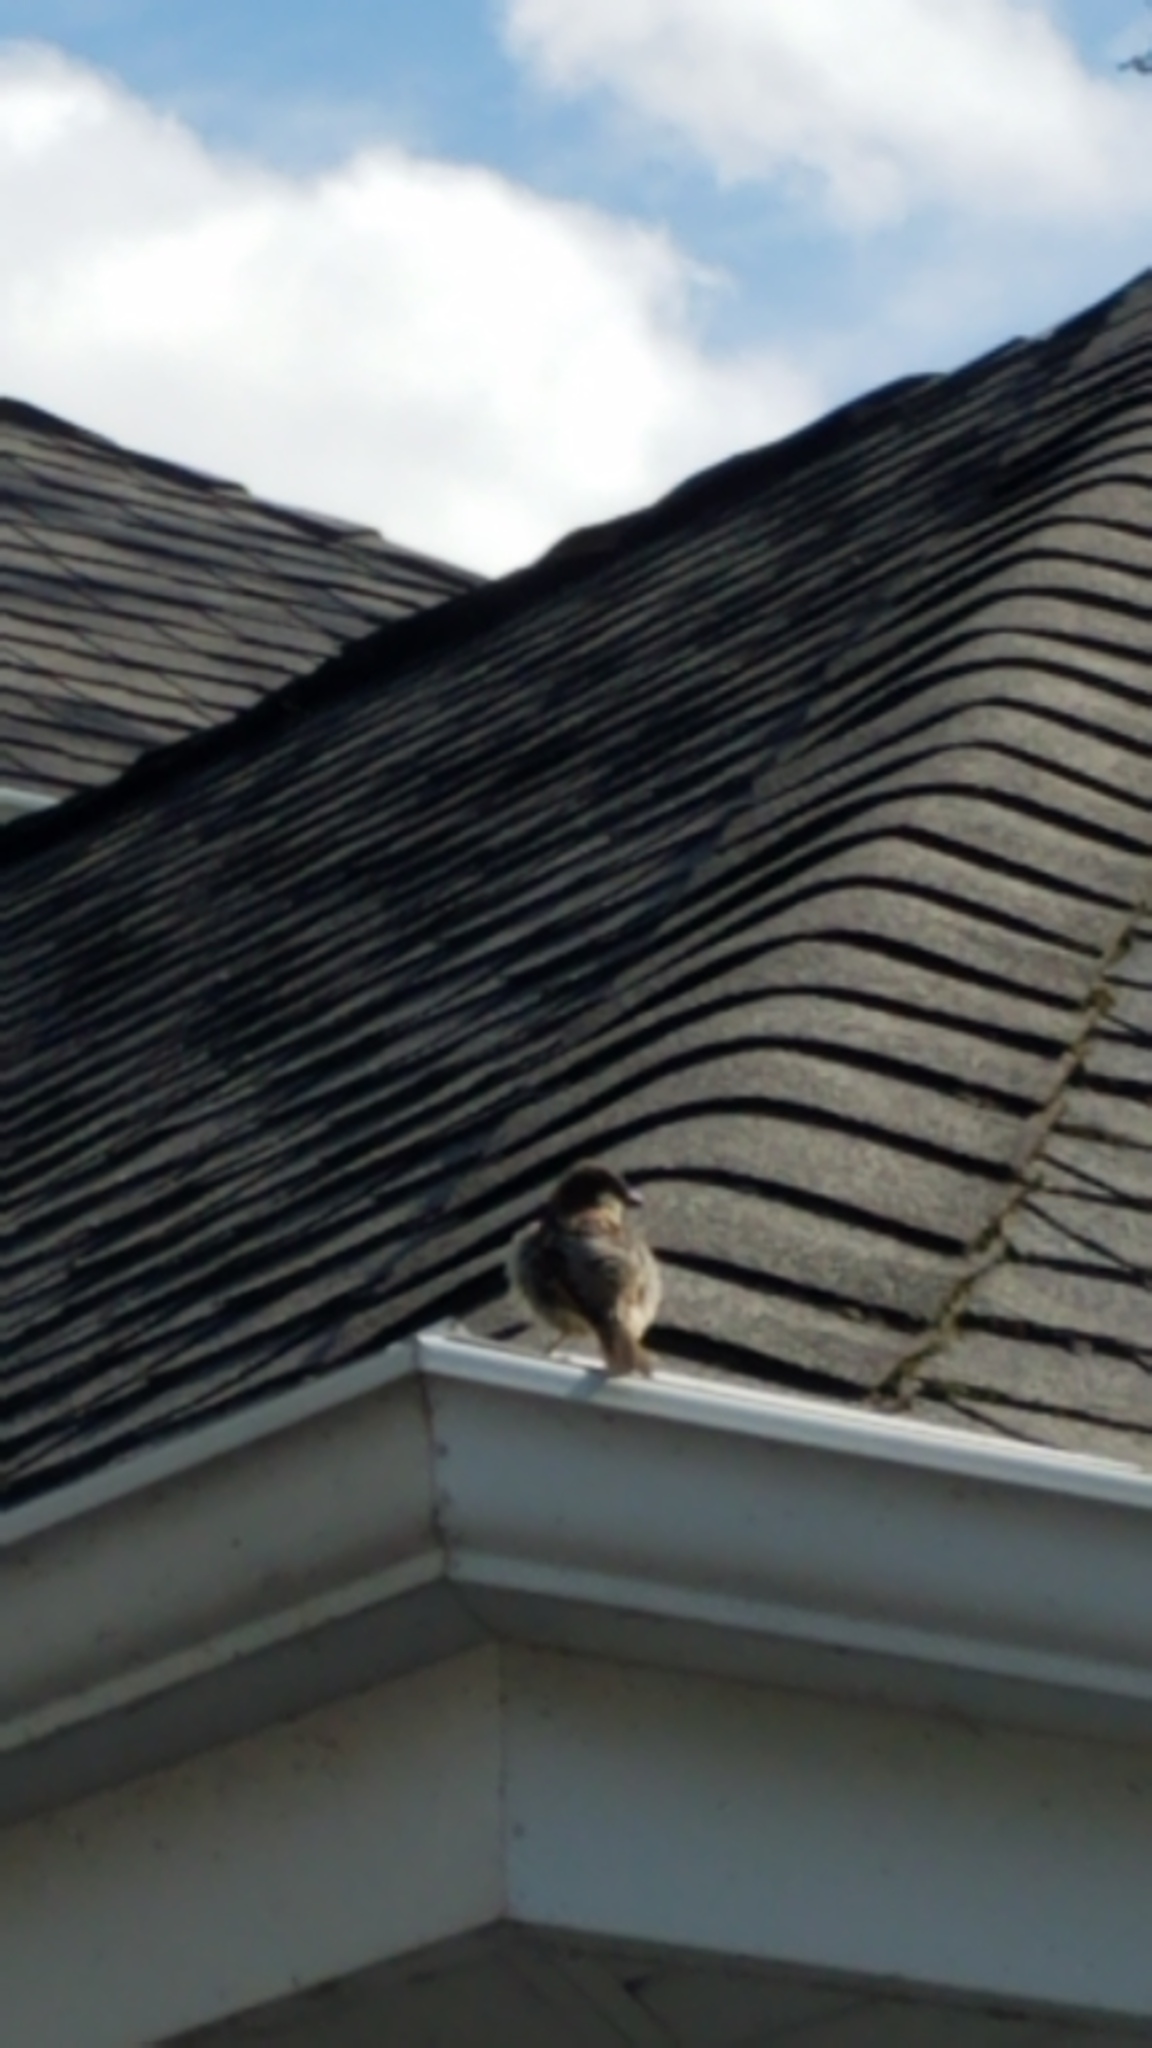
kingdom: Animalia
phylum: Chordata
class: Aves
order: Passeriformes
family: Passeridae
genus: Passer
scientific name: Passer domesticus
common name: House sparrow
